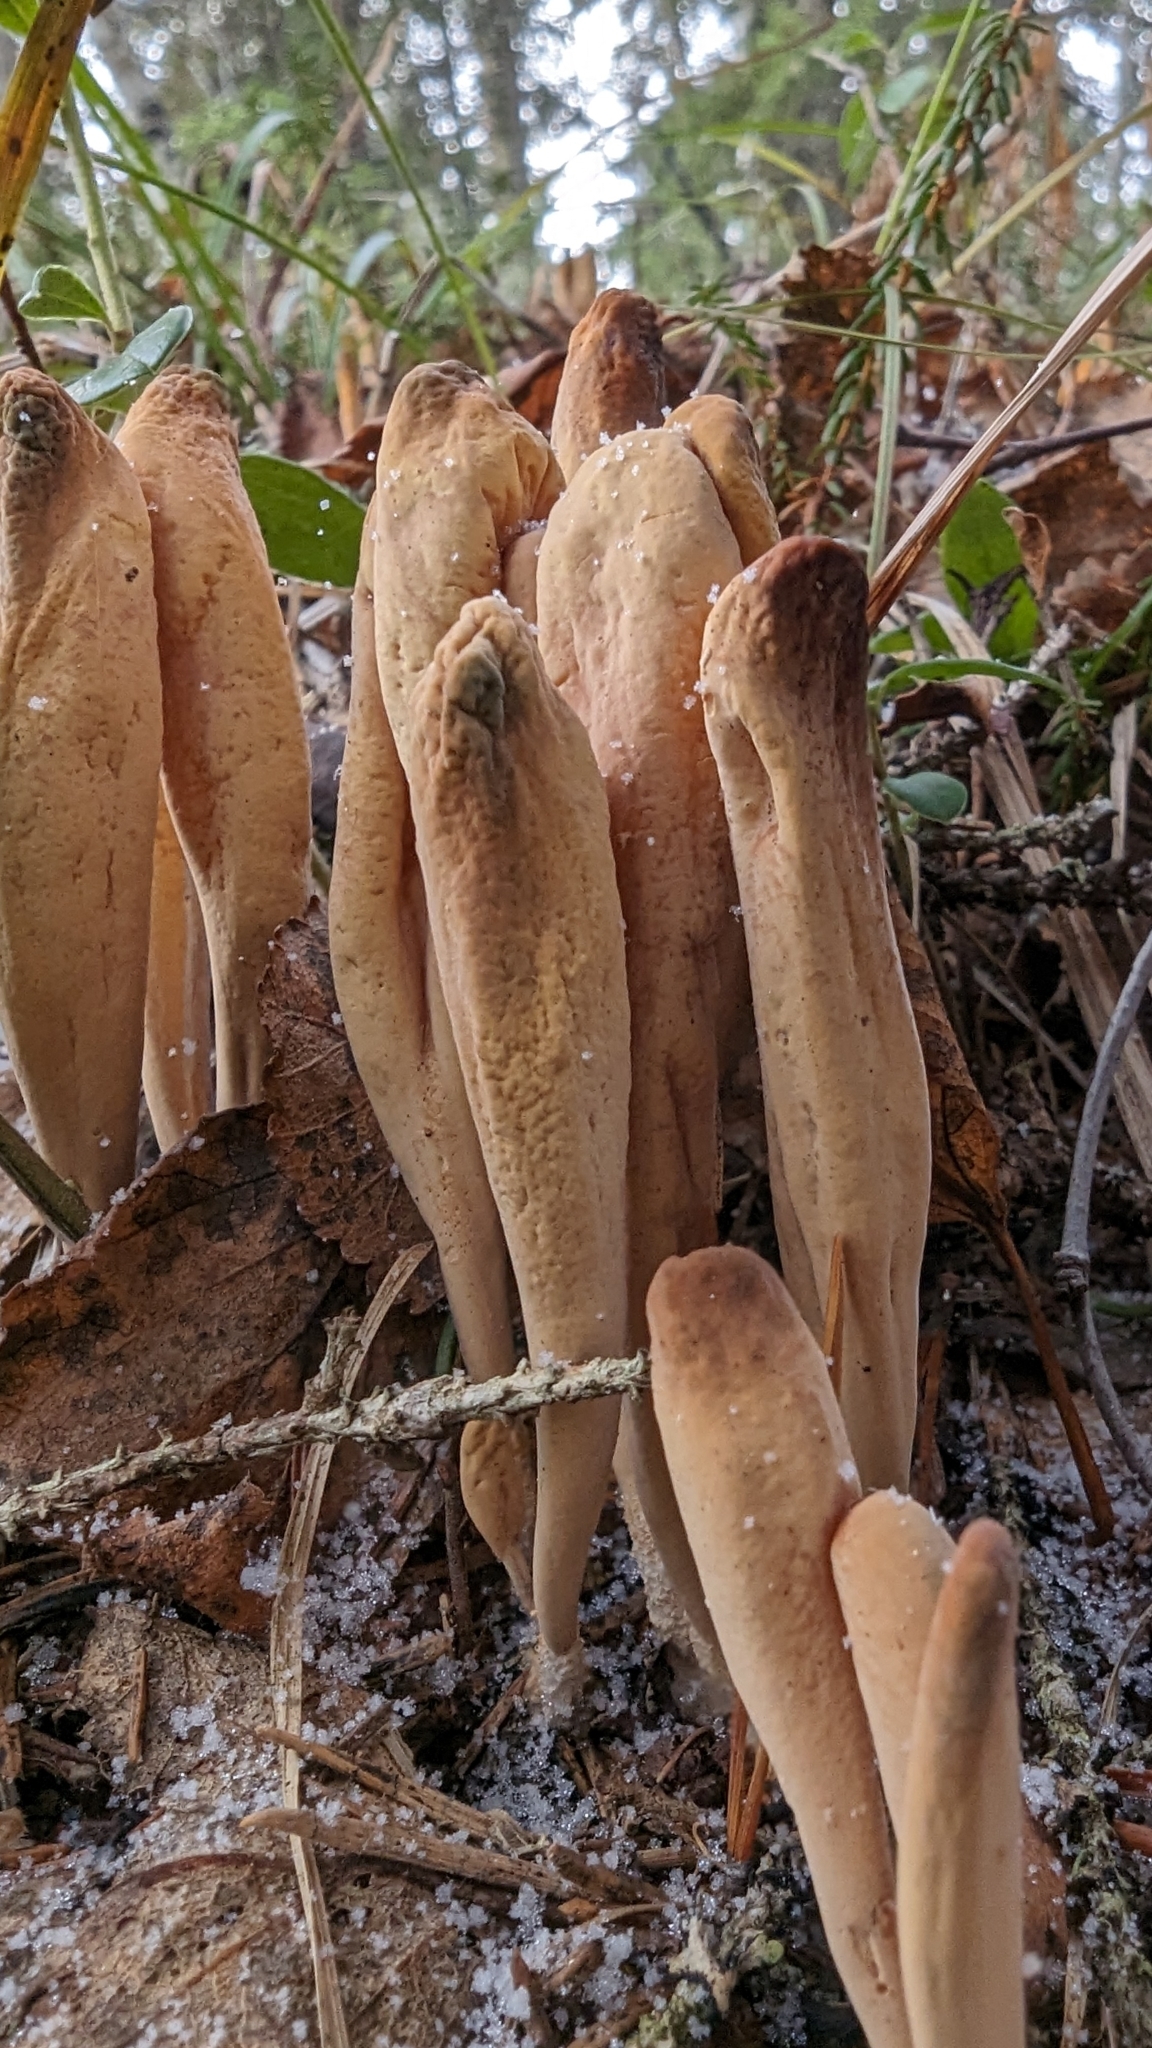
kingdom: Fungi
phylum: Basidiomycota
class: Agaricomycetes
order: Gomphales
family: Clavariadelphaceae
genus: Clavariadelphus
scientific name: Clavariadelphus pistillaris
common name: Giant club
